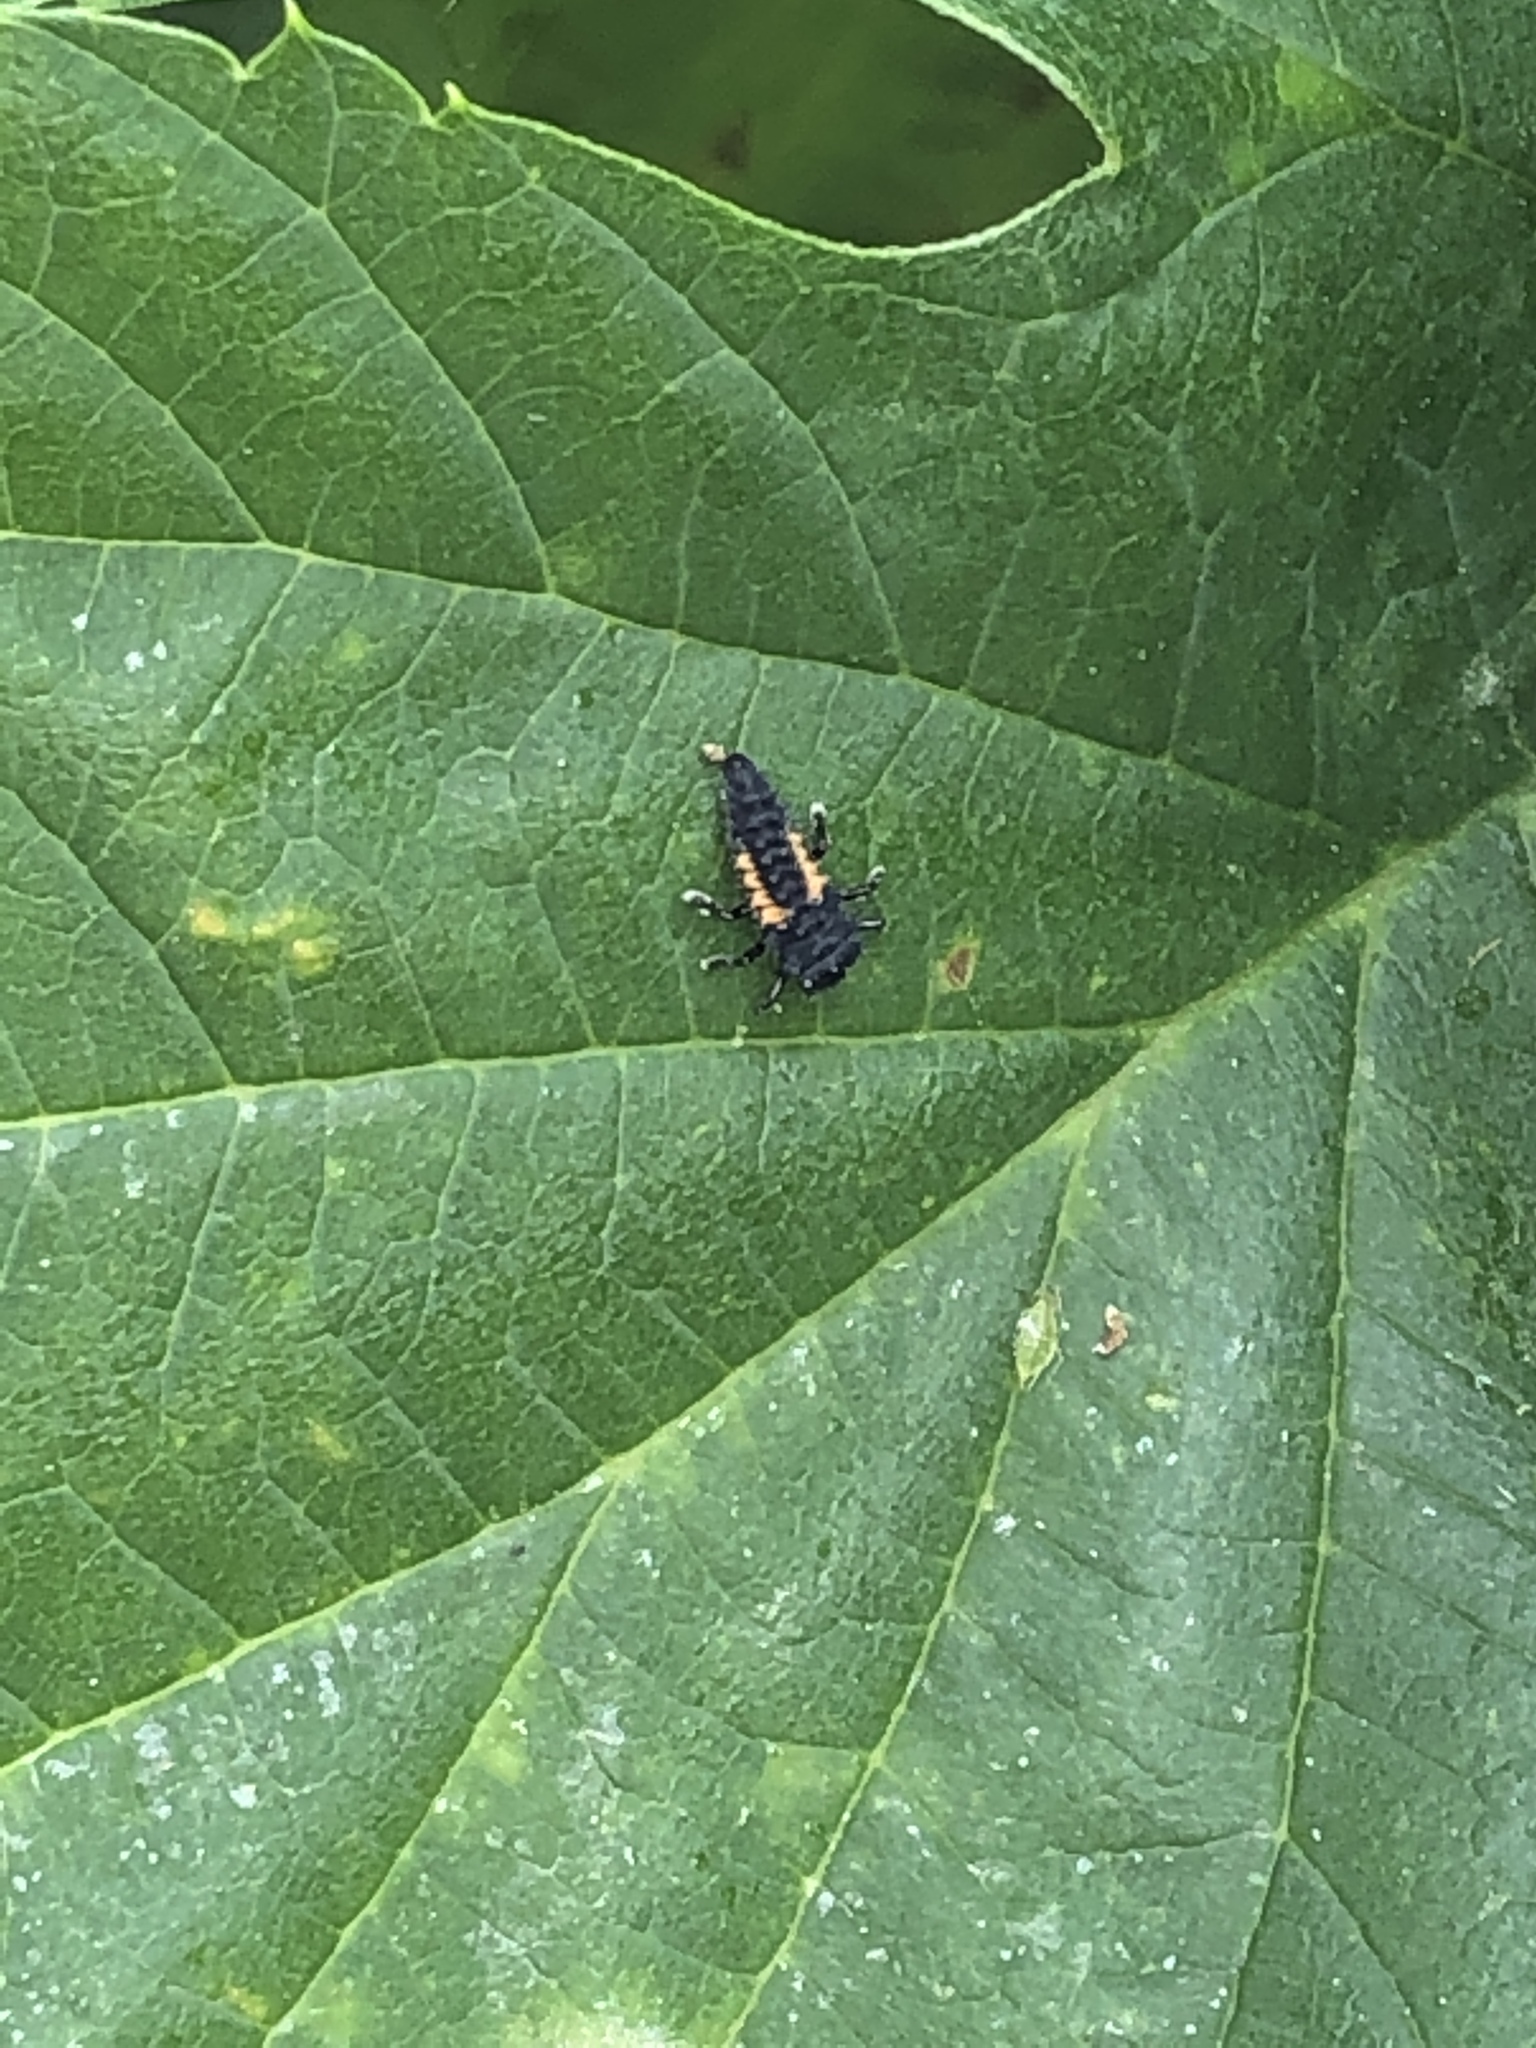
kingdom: Animalia
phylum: Arthropoda
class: Insecta
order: Coleoptera
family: Coccinellidae
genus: Harmonia
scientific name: Harmonia axyridis
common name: Harlequin ladybird
